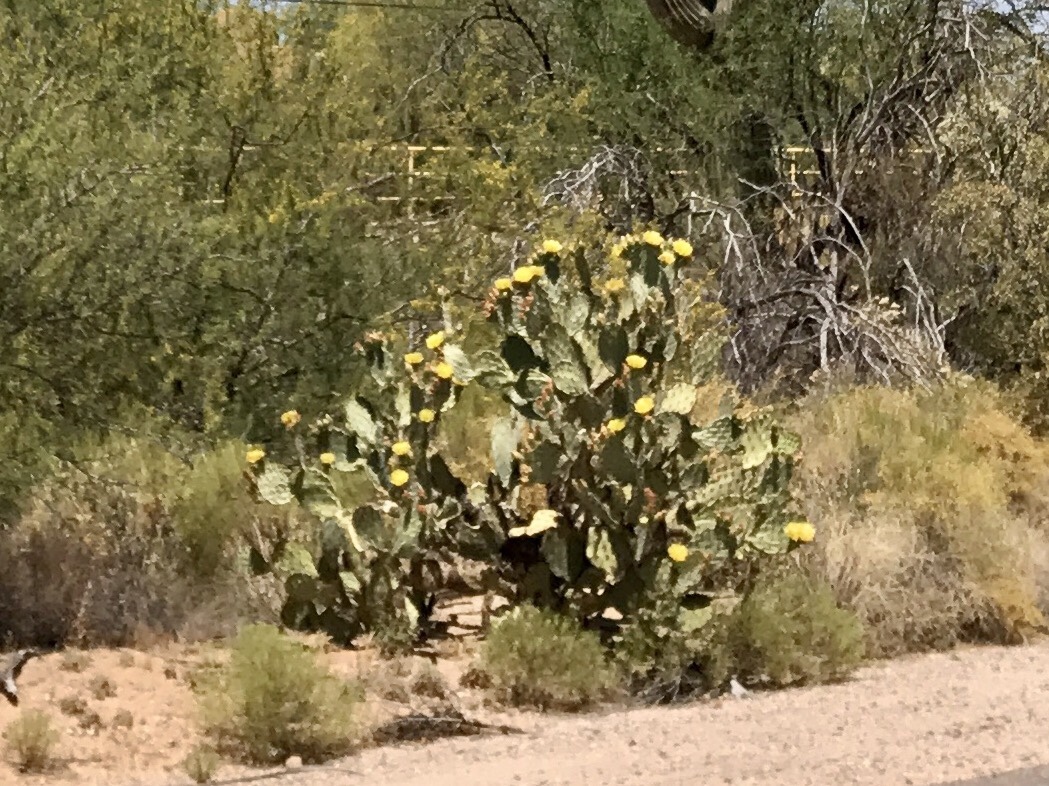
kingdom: Plantae
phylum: Tracheophyta
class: Magnoliopsida
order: Caryophyllales
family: Cactaceae
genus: Opuntia
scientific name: Opuntia engelmannii
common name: Cactus-apple
